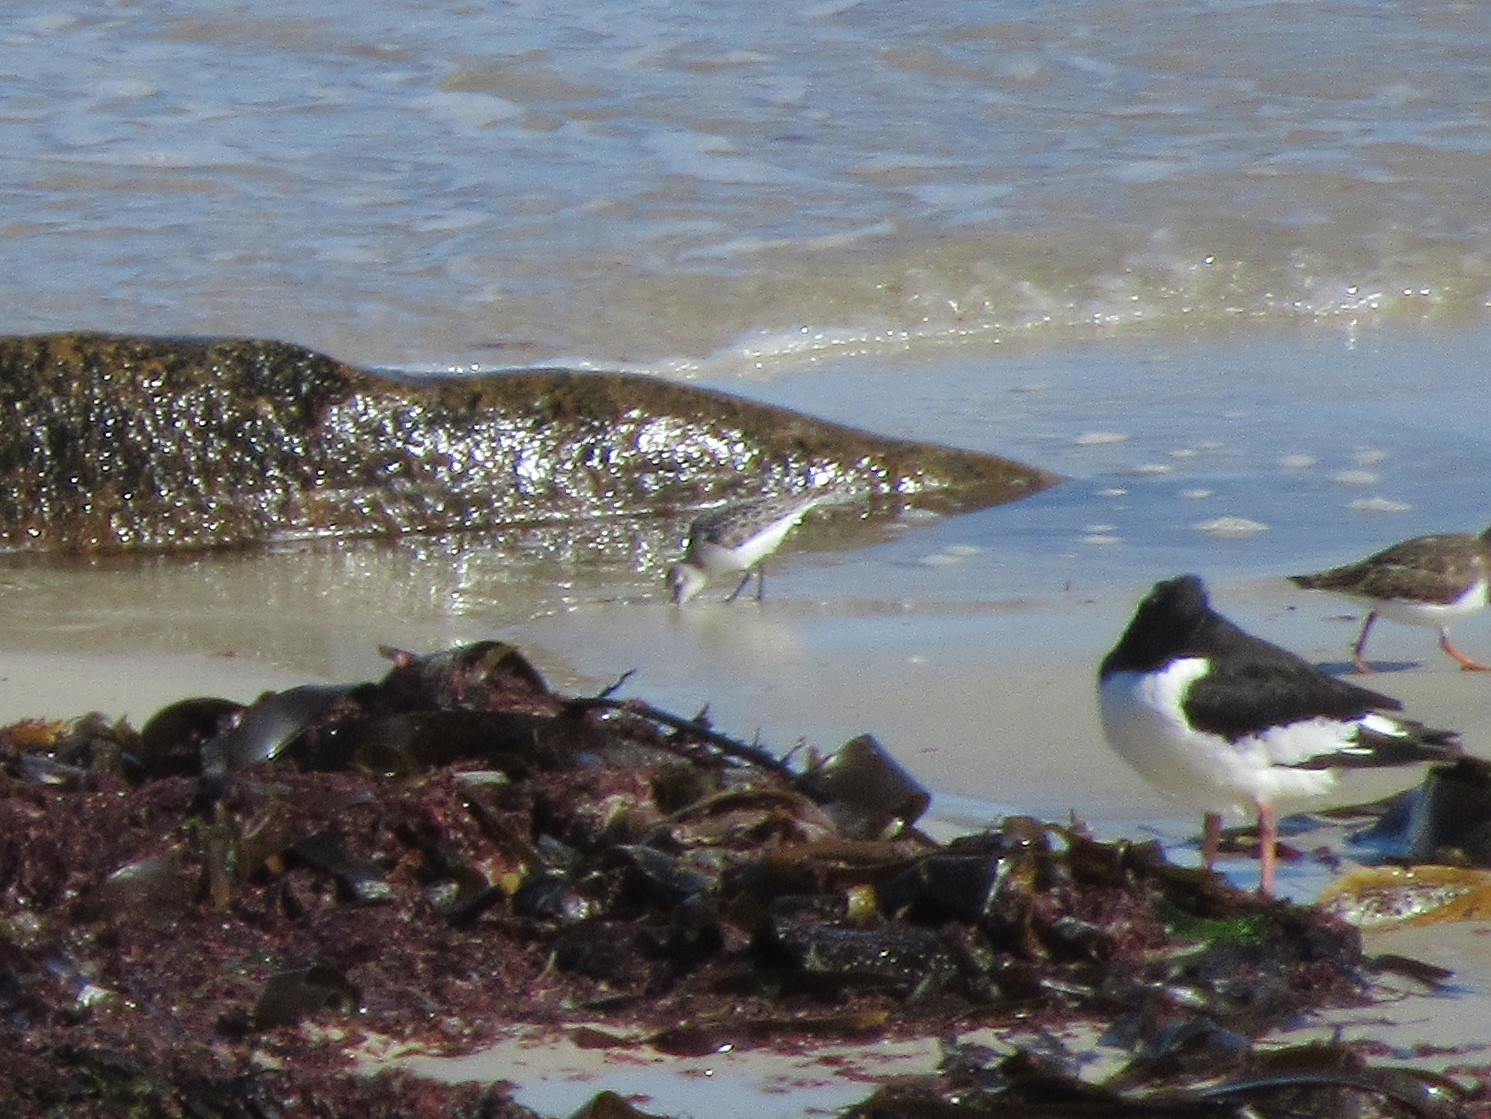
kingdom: Animalia
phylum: Chordata
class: Aves
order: Charadriiformes
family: Scolopacidae
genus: Calidris
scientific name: Calidris alba
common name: Sanderling
